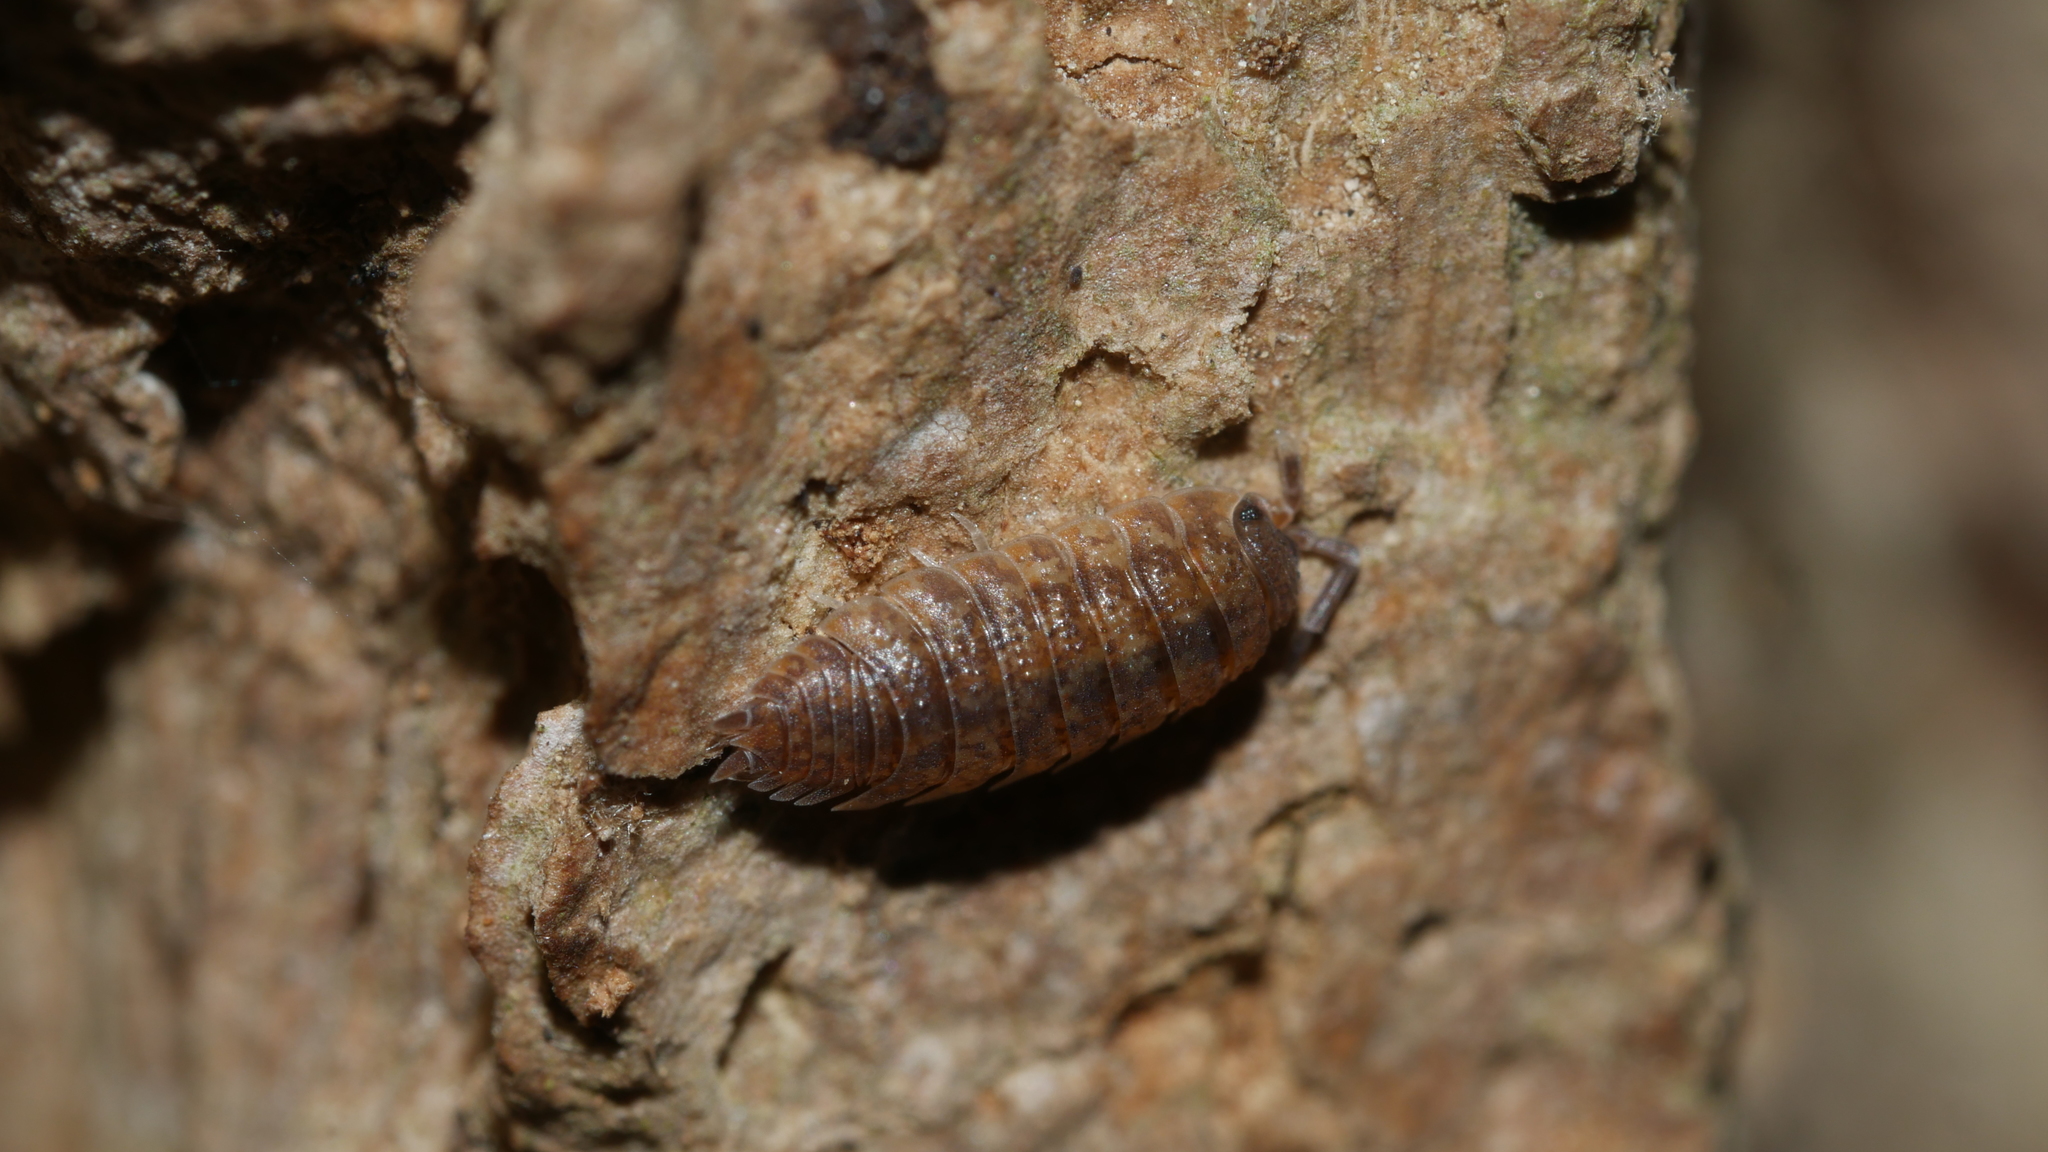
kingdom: Animalia
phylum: Arthropoda
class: Malacostraca
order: Isopoda
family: Porcellionidae
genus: Porcellio
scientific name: Porcellio scaber
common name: Common rough woodlouse
